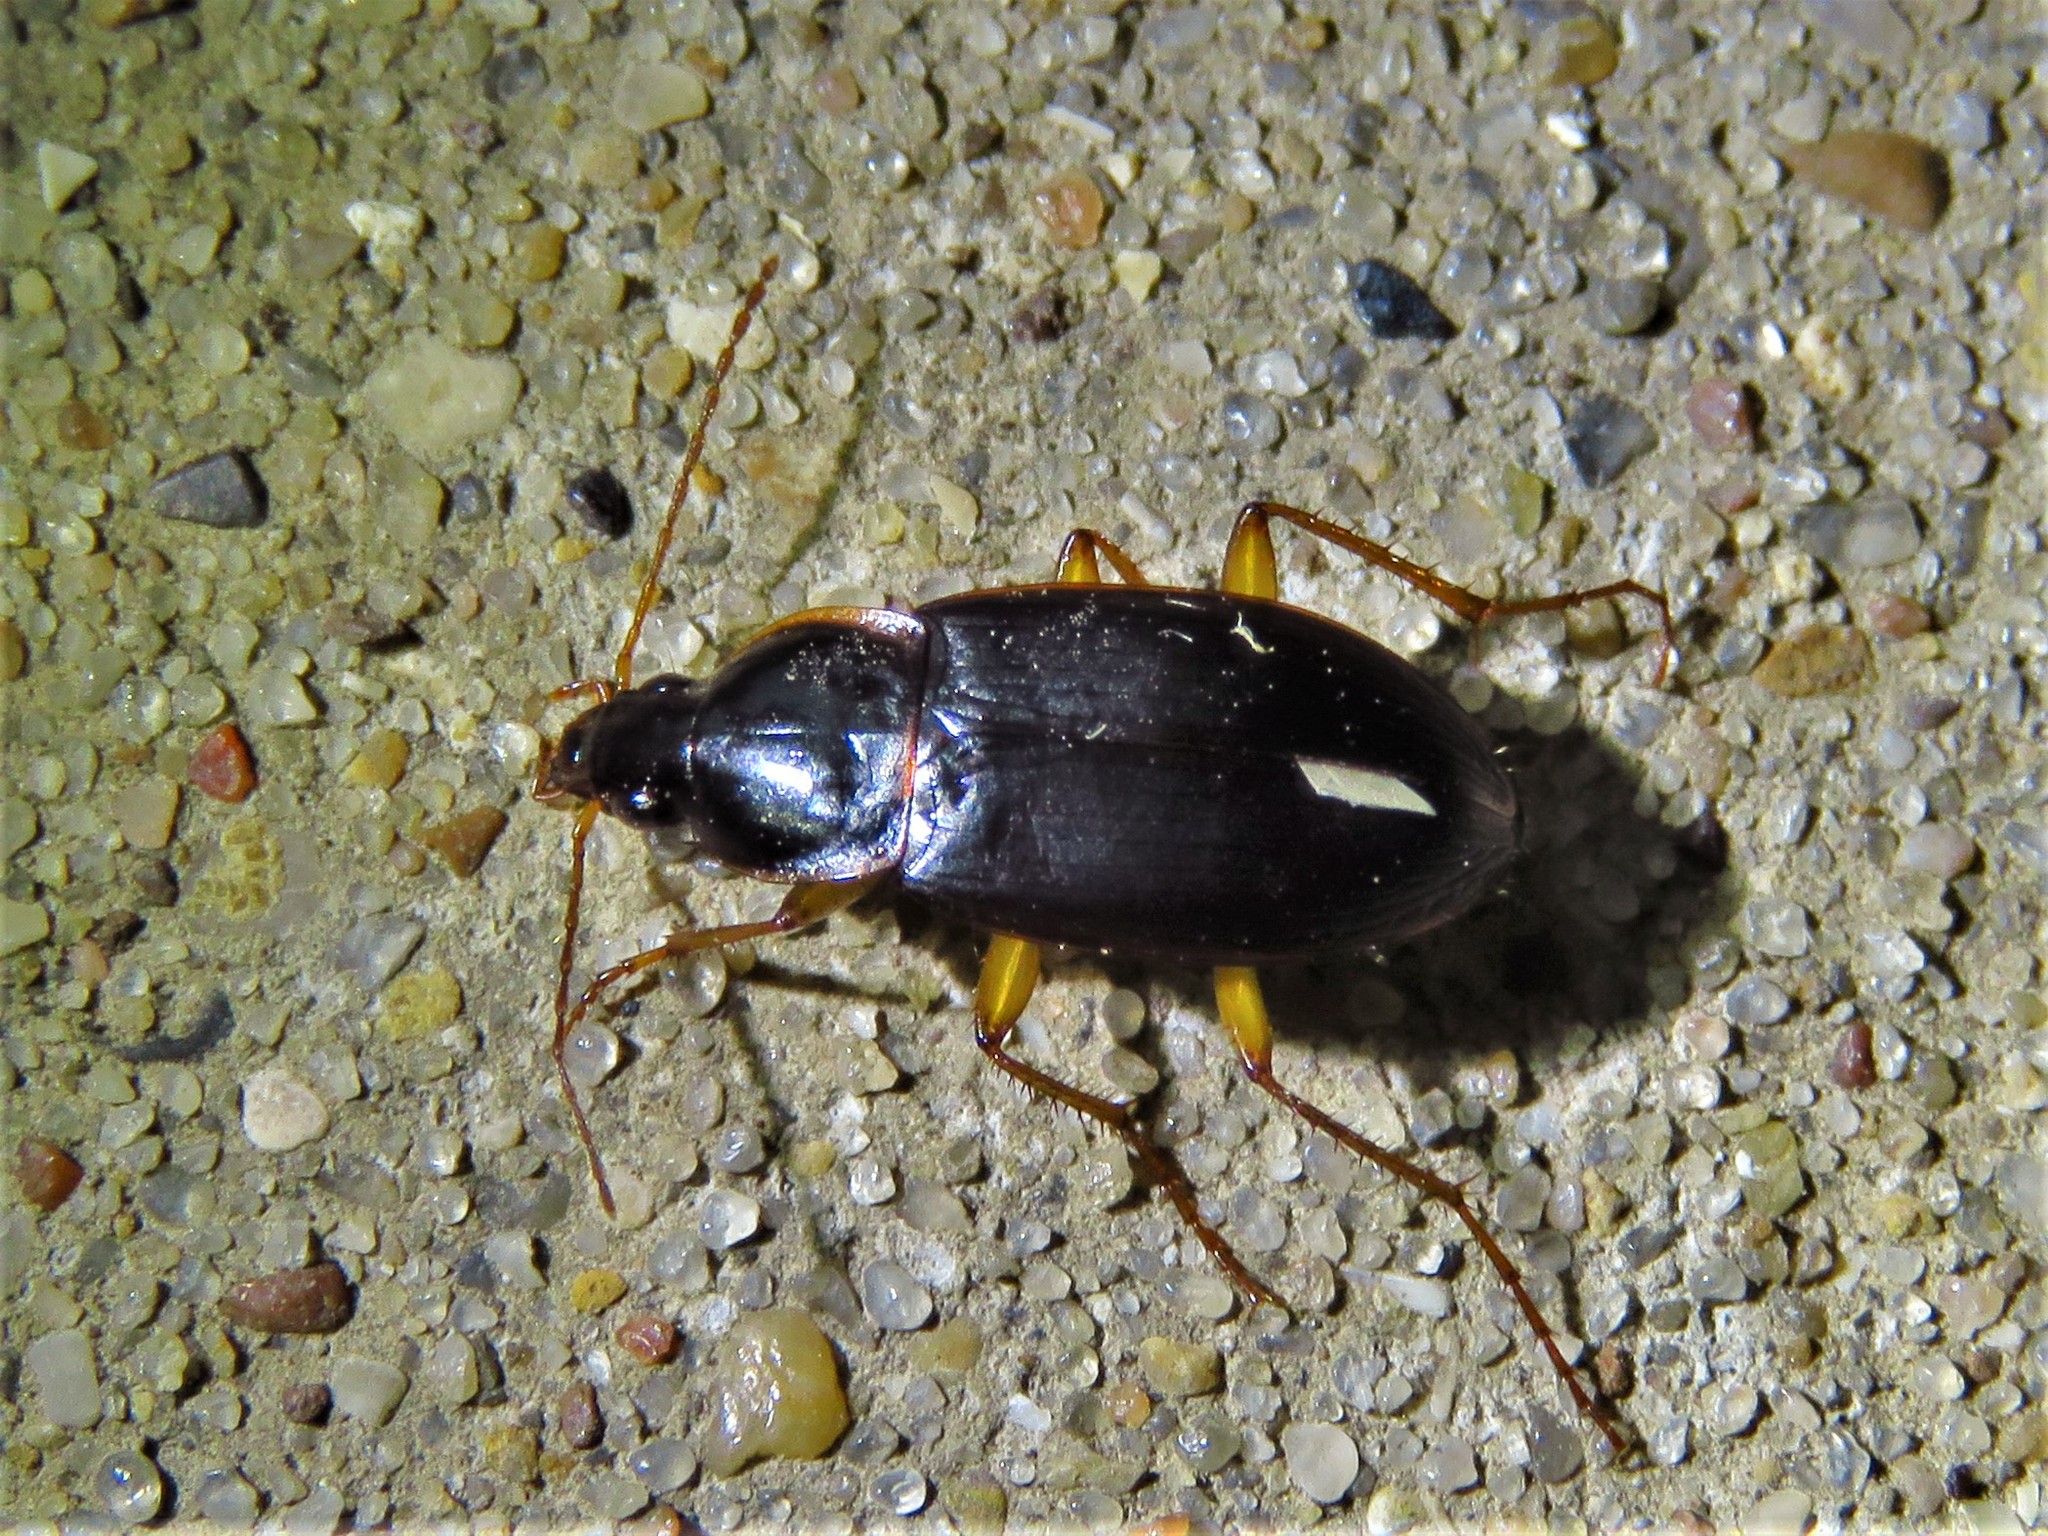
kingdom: Animalia
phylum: Arthropoda
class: Insecta
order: Coleoptera
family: Carabidae
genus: Calathus
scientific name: Calathus opaculus
